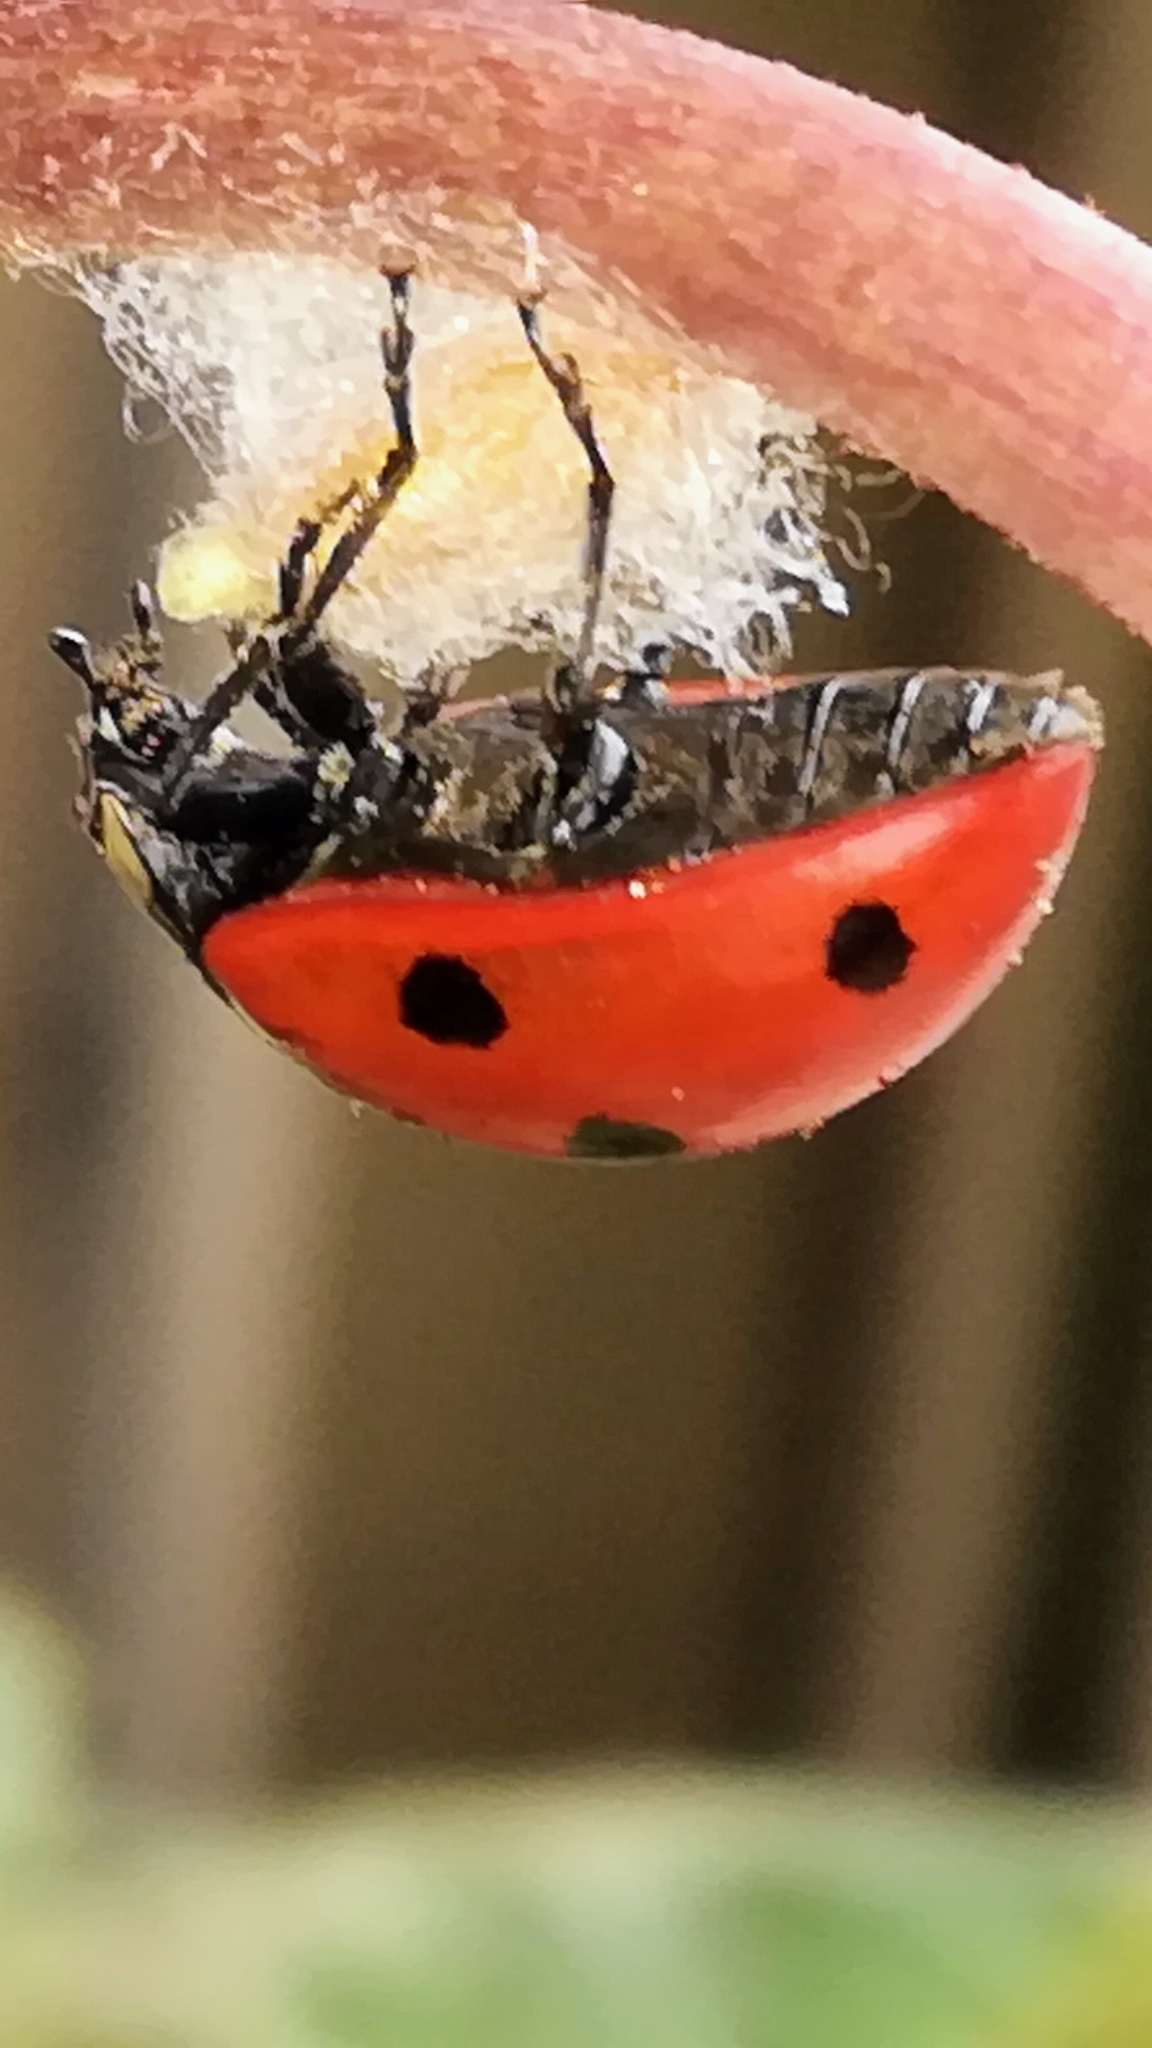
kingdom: Viruses
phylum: Pisuviricota
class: Pisoniviricetes
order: Picornavirales
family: Iflaviridae
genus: Iflavirus
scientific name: Iflavirus dinococcinellae
